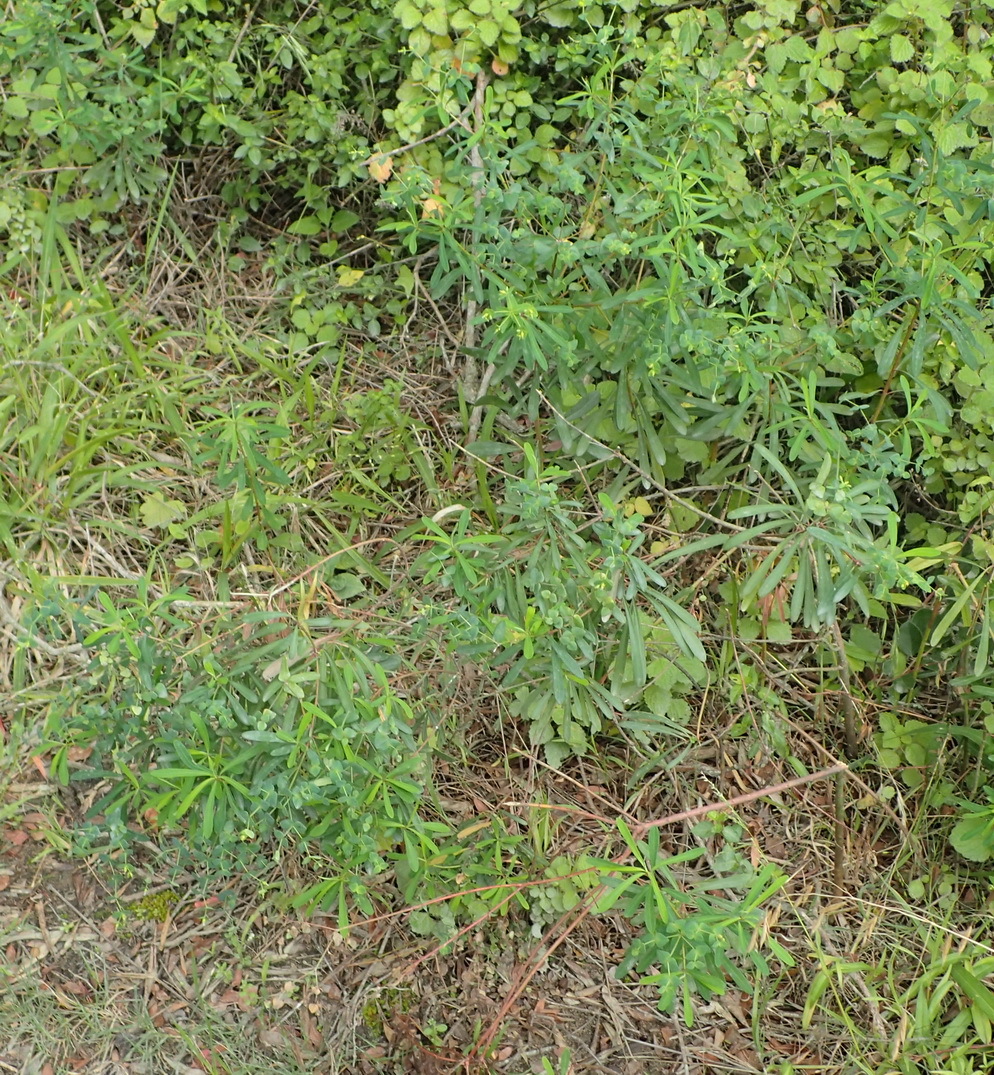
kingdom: Plantae
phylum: Tracheophyta
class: Magnoliopsida
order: Malpighiales
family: Euphorbiaceae
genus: Euphorbia
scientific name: Euphorbia kraussiana
